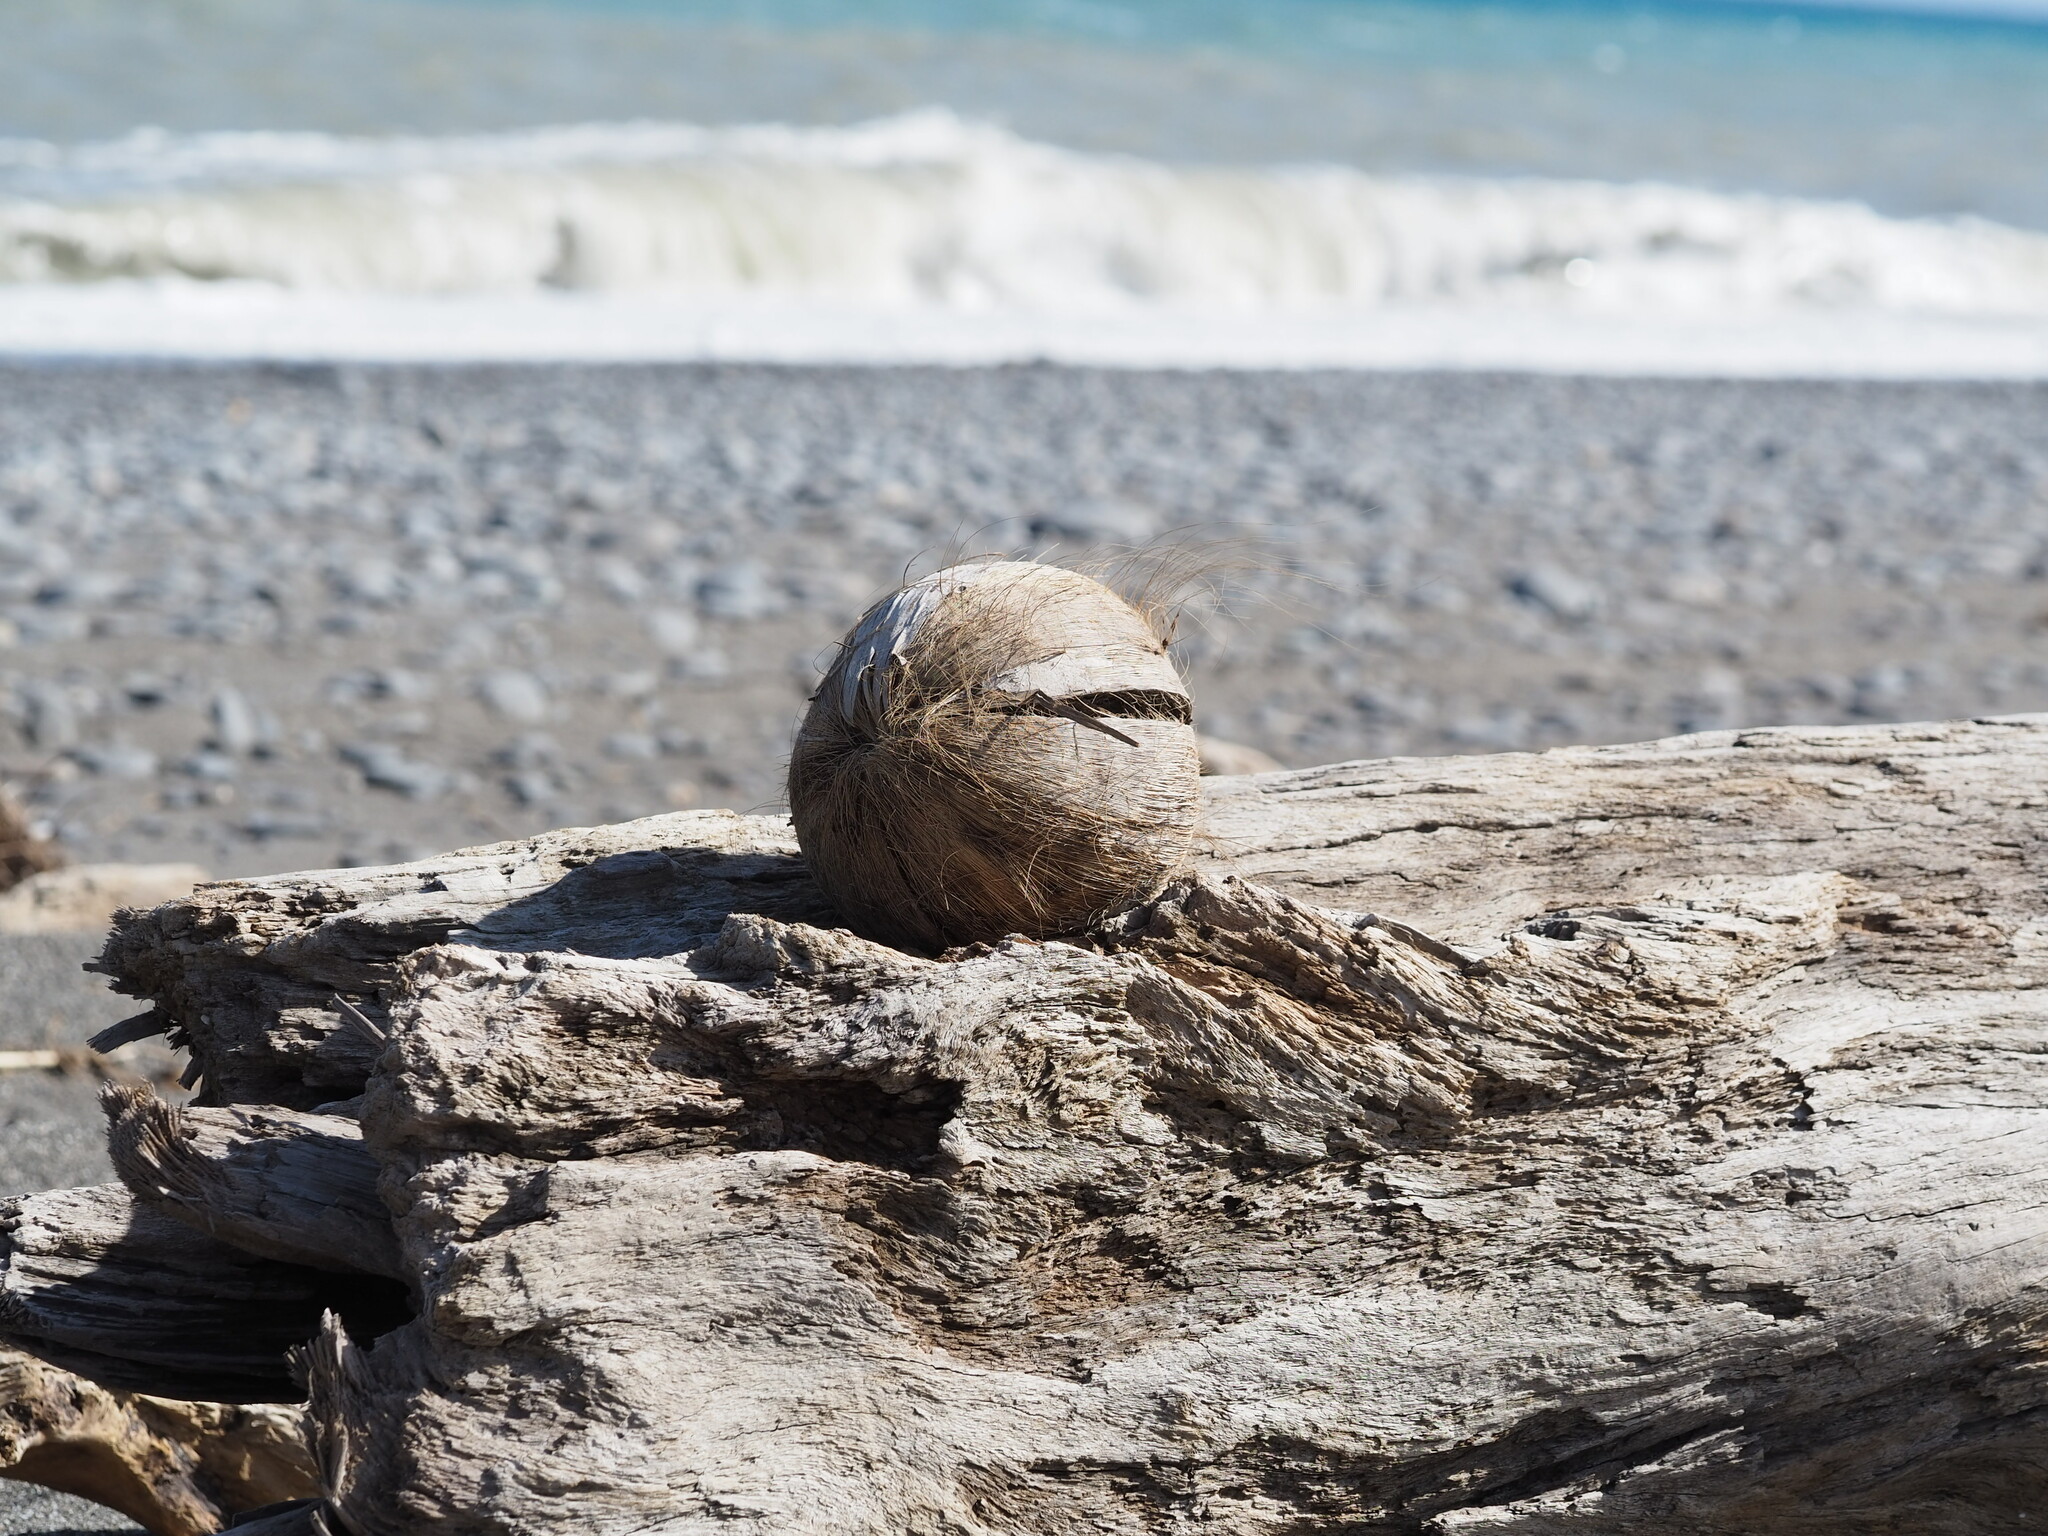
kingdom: Plantae
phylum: Tracheophyta
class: Liliopsida
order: Arecales
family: Arecaceae
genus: Cocos
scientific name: Cocos nucifera
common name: Coconut palm
